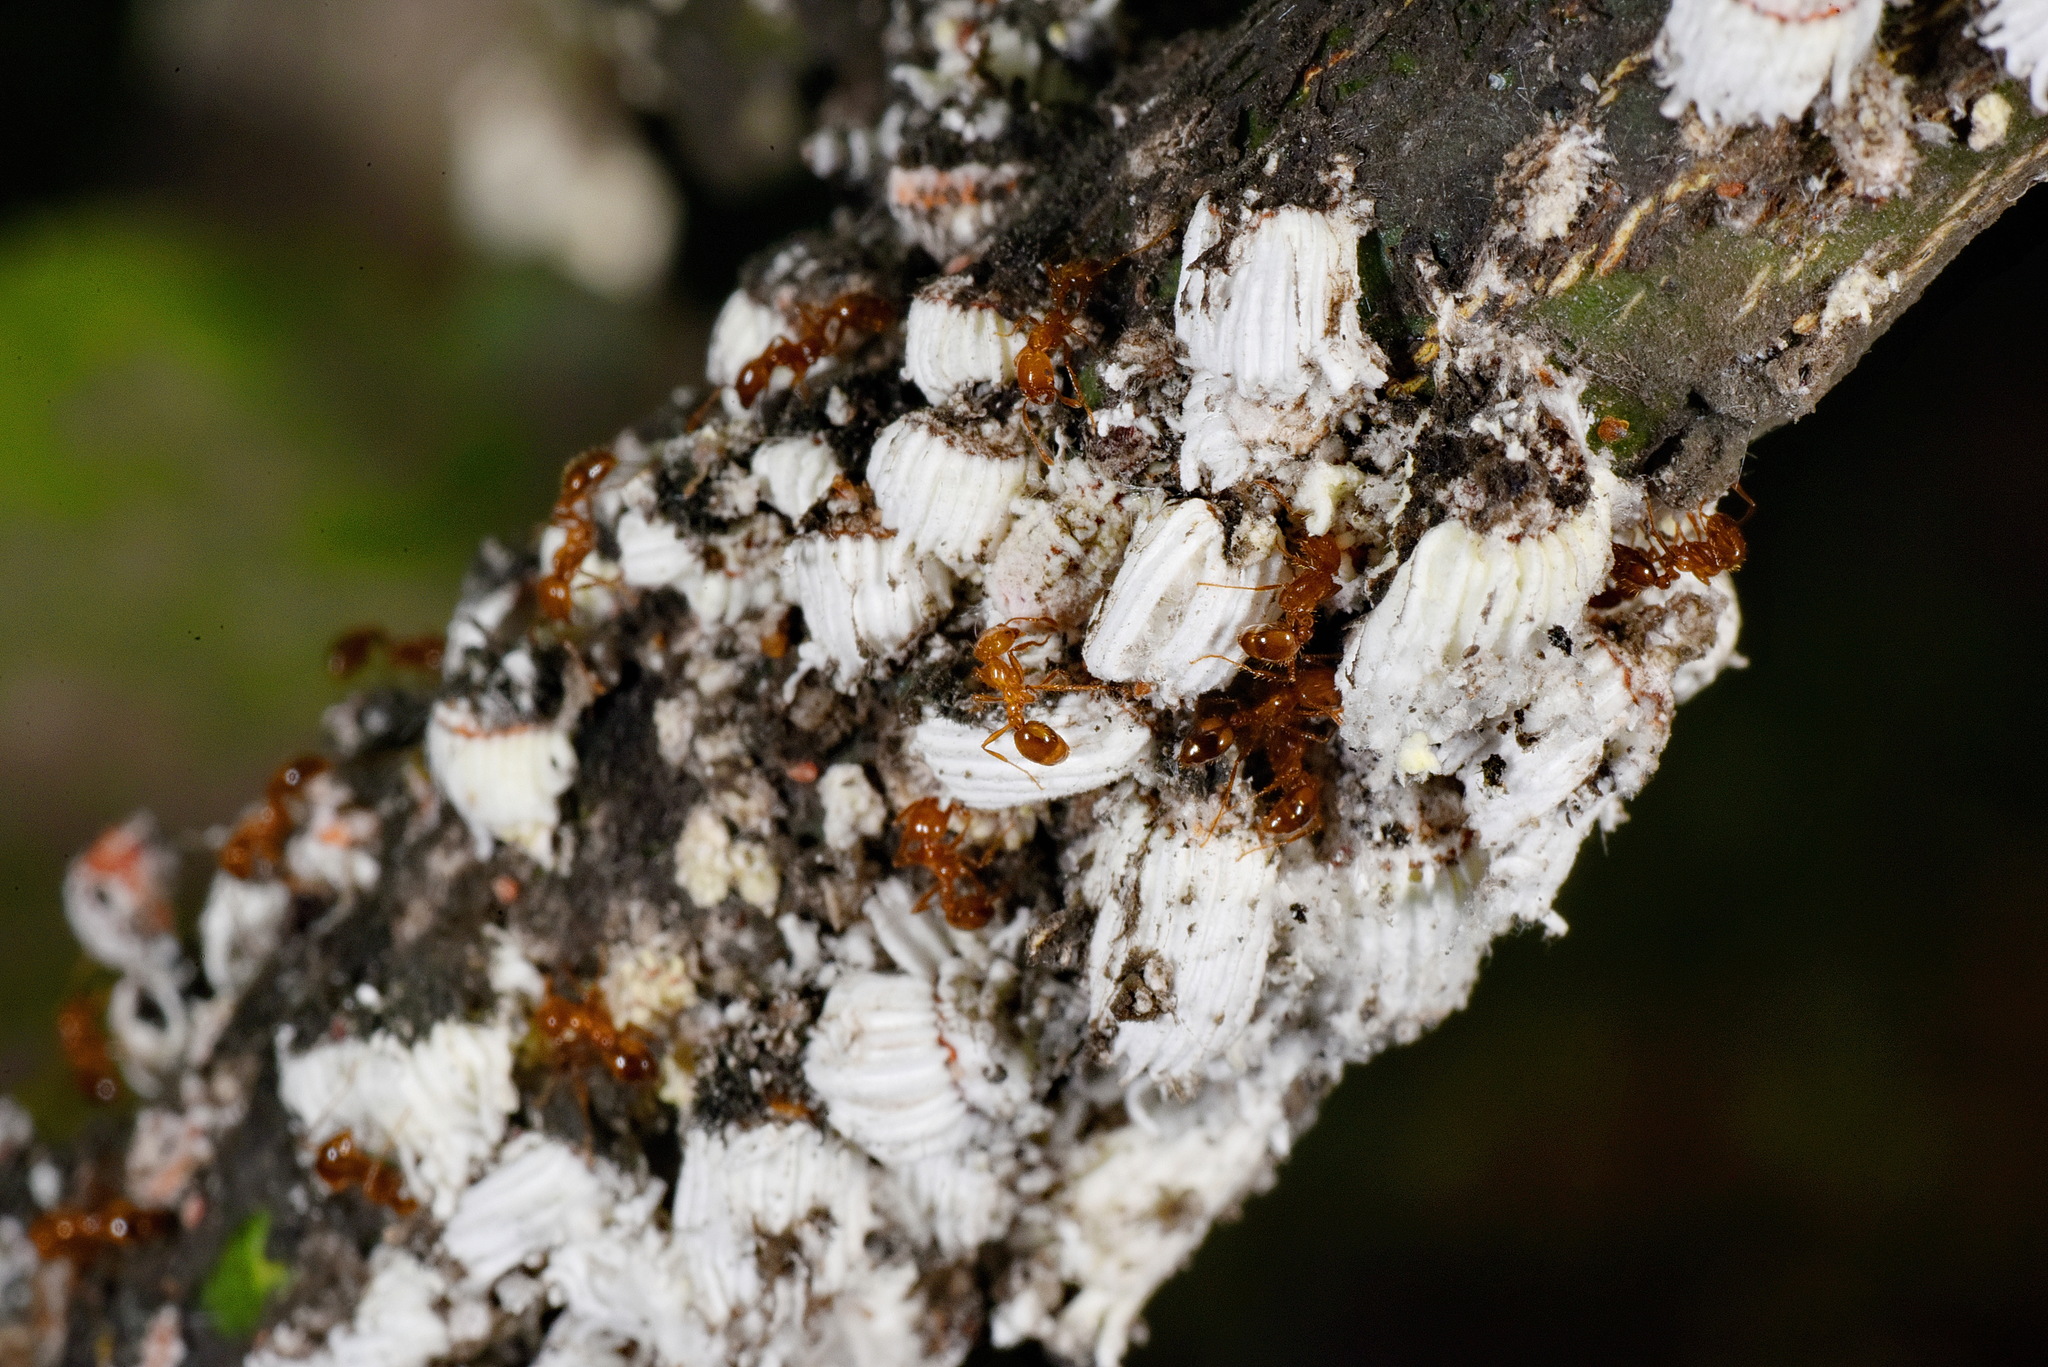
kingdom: Animalia
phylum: Arthropoda
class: Insecta
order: Hemiptera
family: Margarodidae
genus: Icerya
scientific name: Icerya purchasi
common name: Cottony cushion scale
